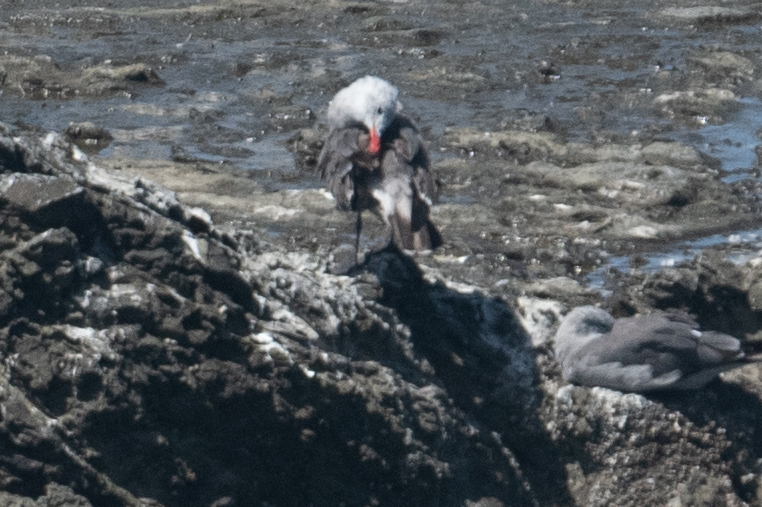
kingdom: Animalia
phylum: Chordata
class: Aves
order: Charadriiformes
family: Laridae
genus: Larus
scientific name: Larus heermanni
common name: Heermann's gull
